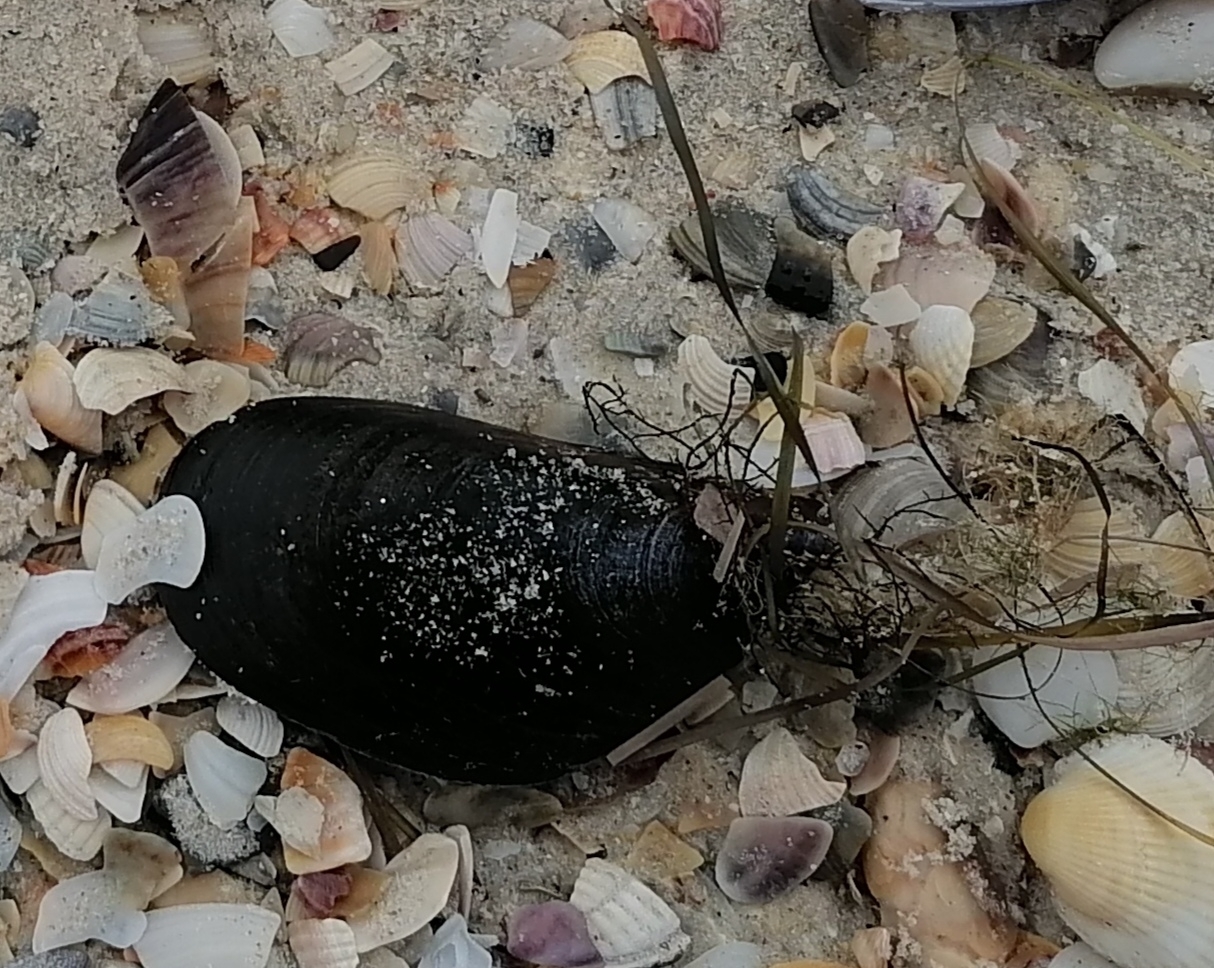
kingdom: Animalia
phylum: Mollusca
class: Bivalvia
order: Mytilida
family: Mytilidae
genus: Mytilus
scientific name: Mytilus galloprovincialis
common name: Mediterranean mussel
